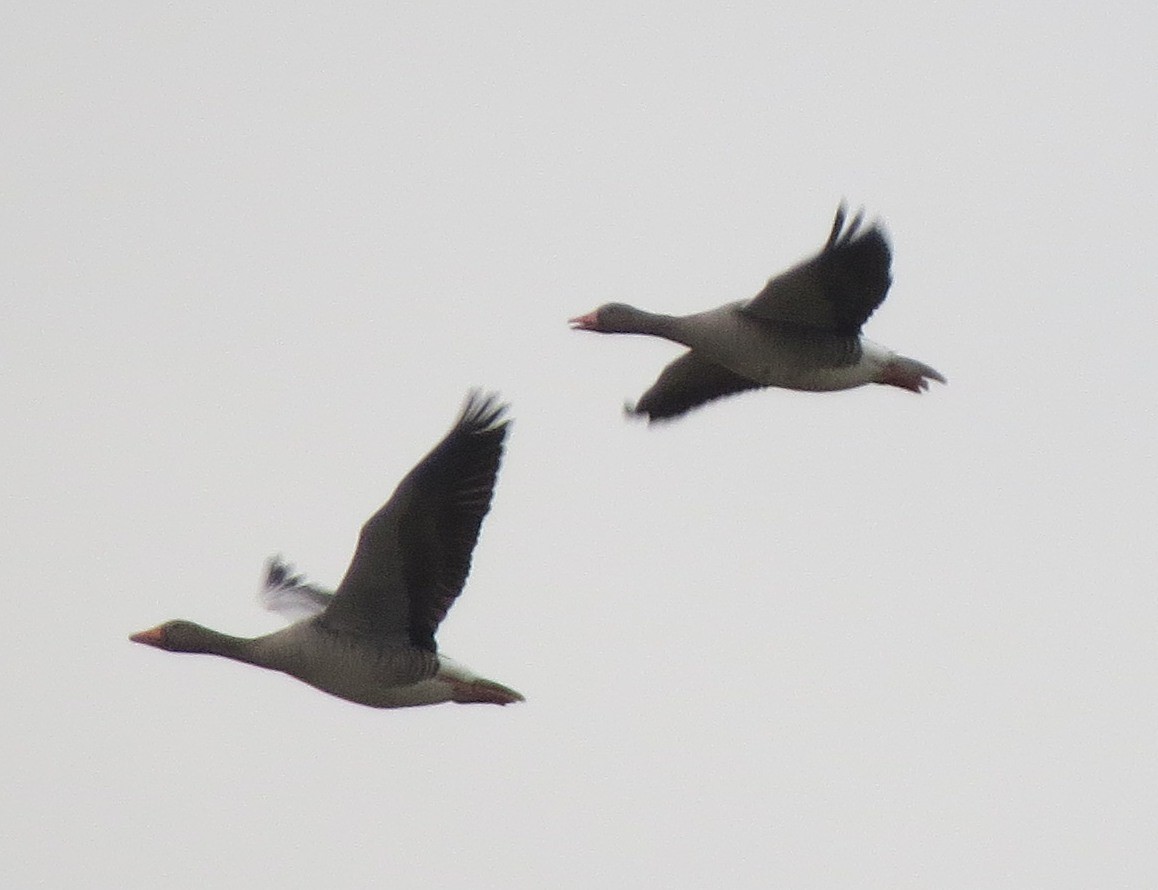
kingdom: Animalia
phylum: Chordata
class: Aves
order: Anseriformes
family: Anatidae
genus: Anser
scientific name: Anser anser
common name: Greylag goose
